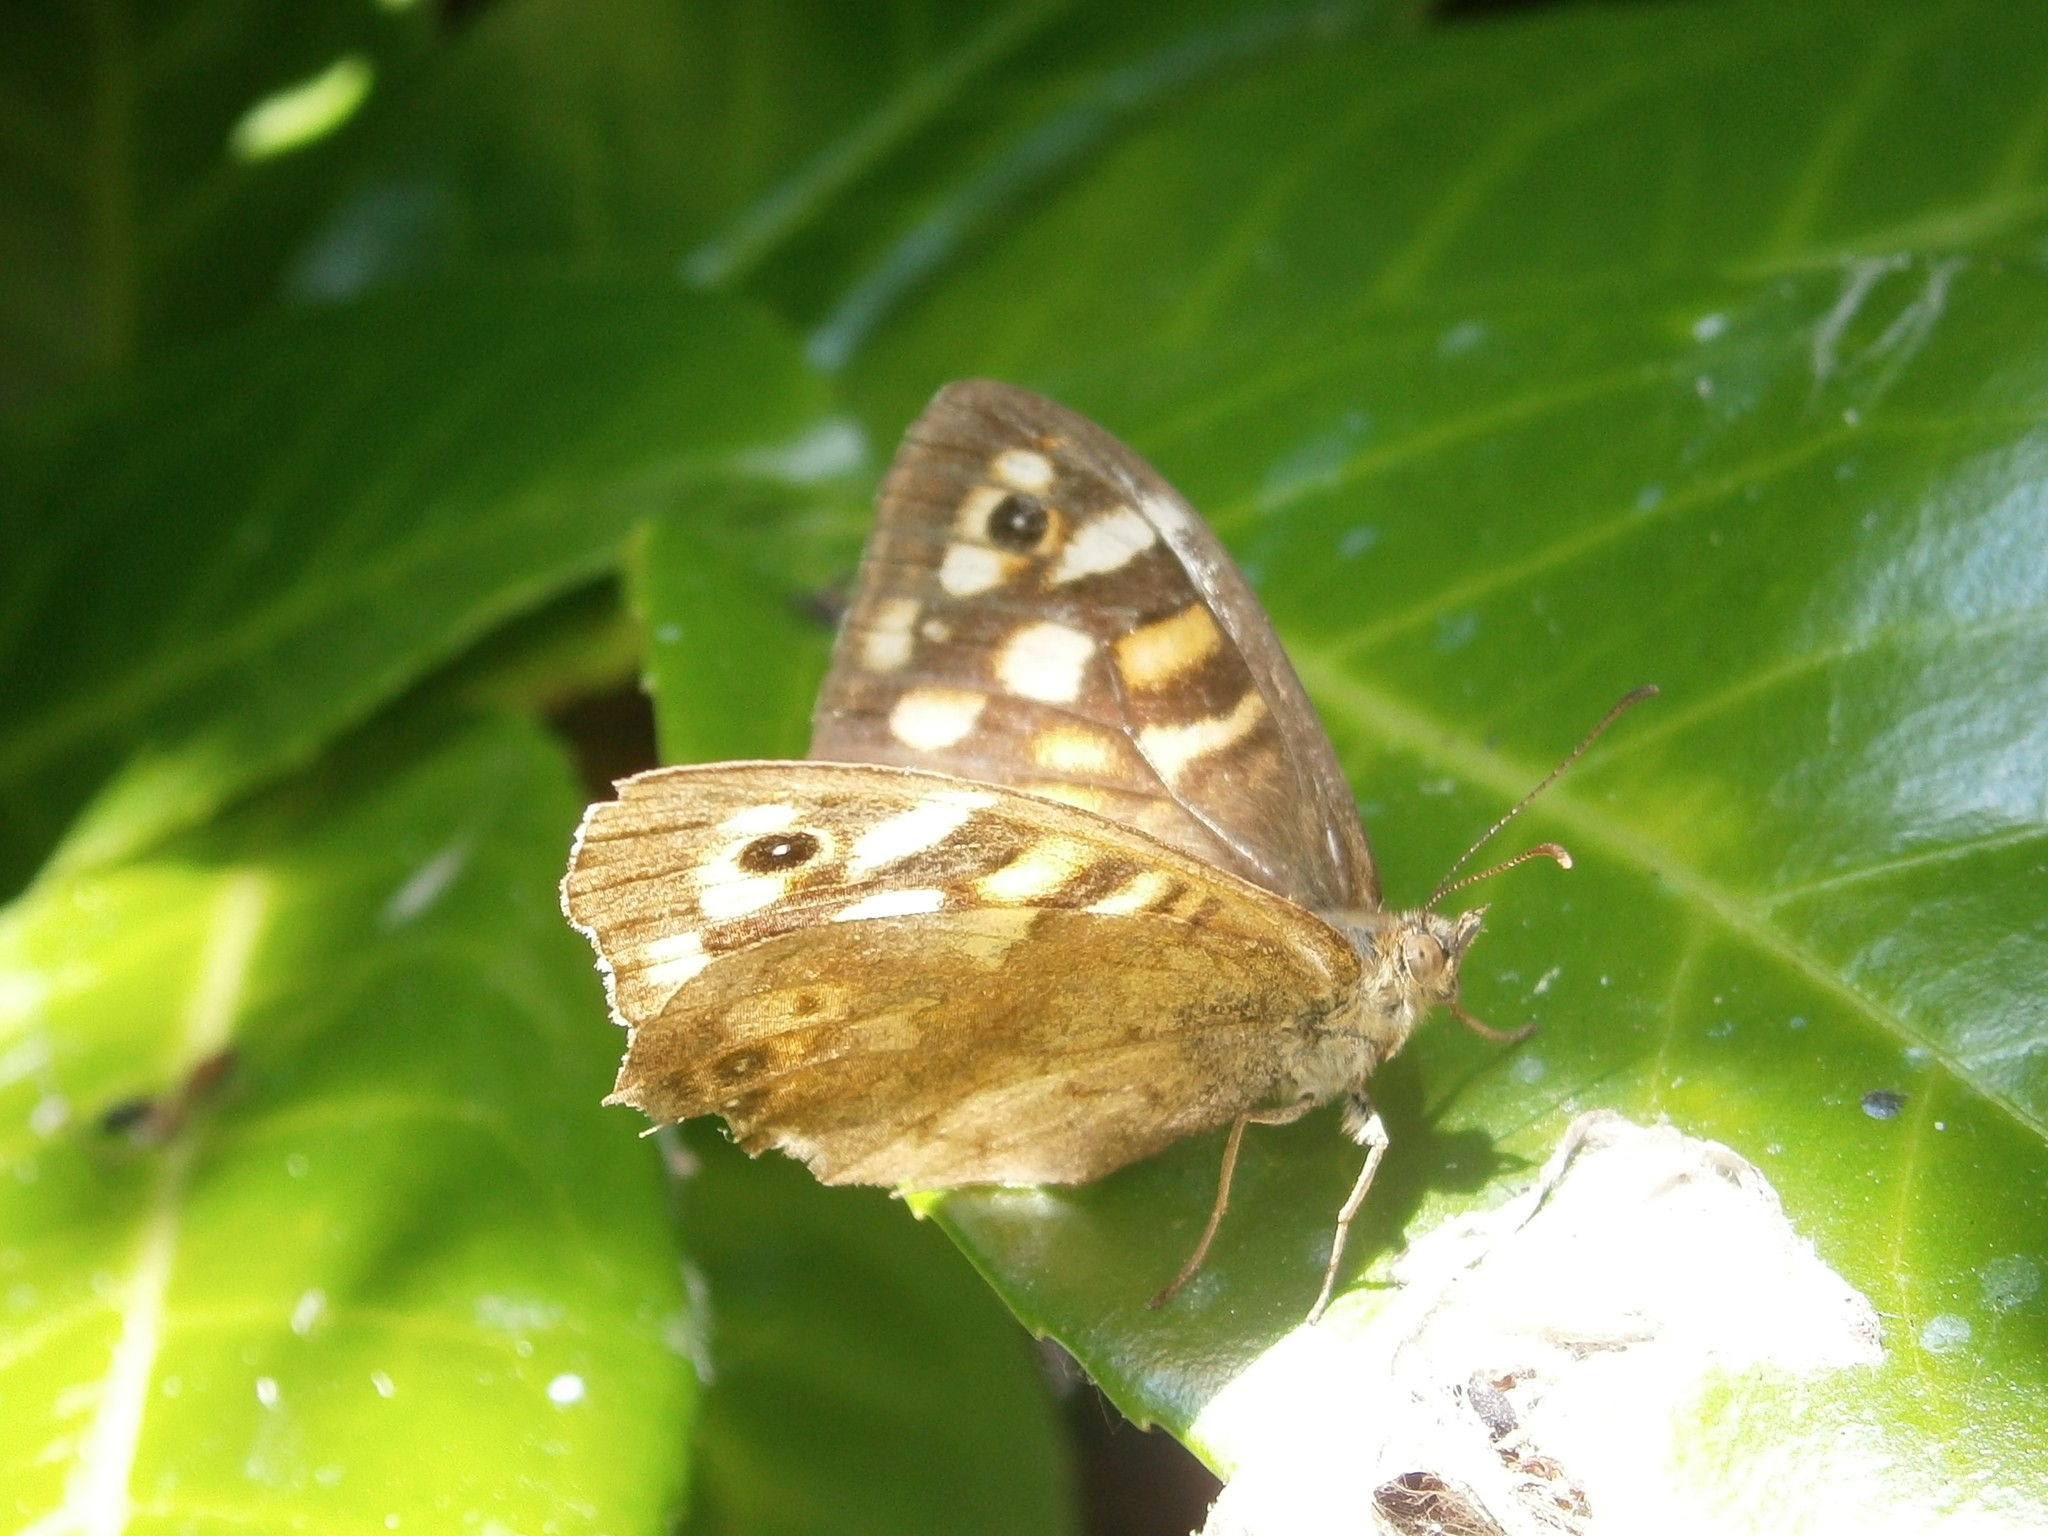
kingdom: Animalia
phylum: Arthropoda
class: Insecta
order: Lepidoptera
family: Nymphalidae
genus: Pararge
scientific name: Pararge aegeria
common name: Speckled wood
